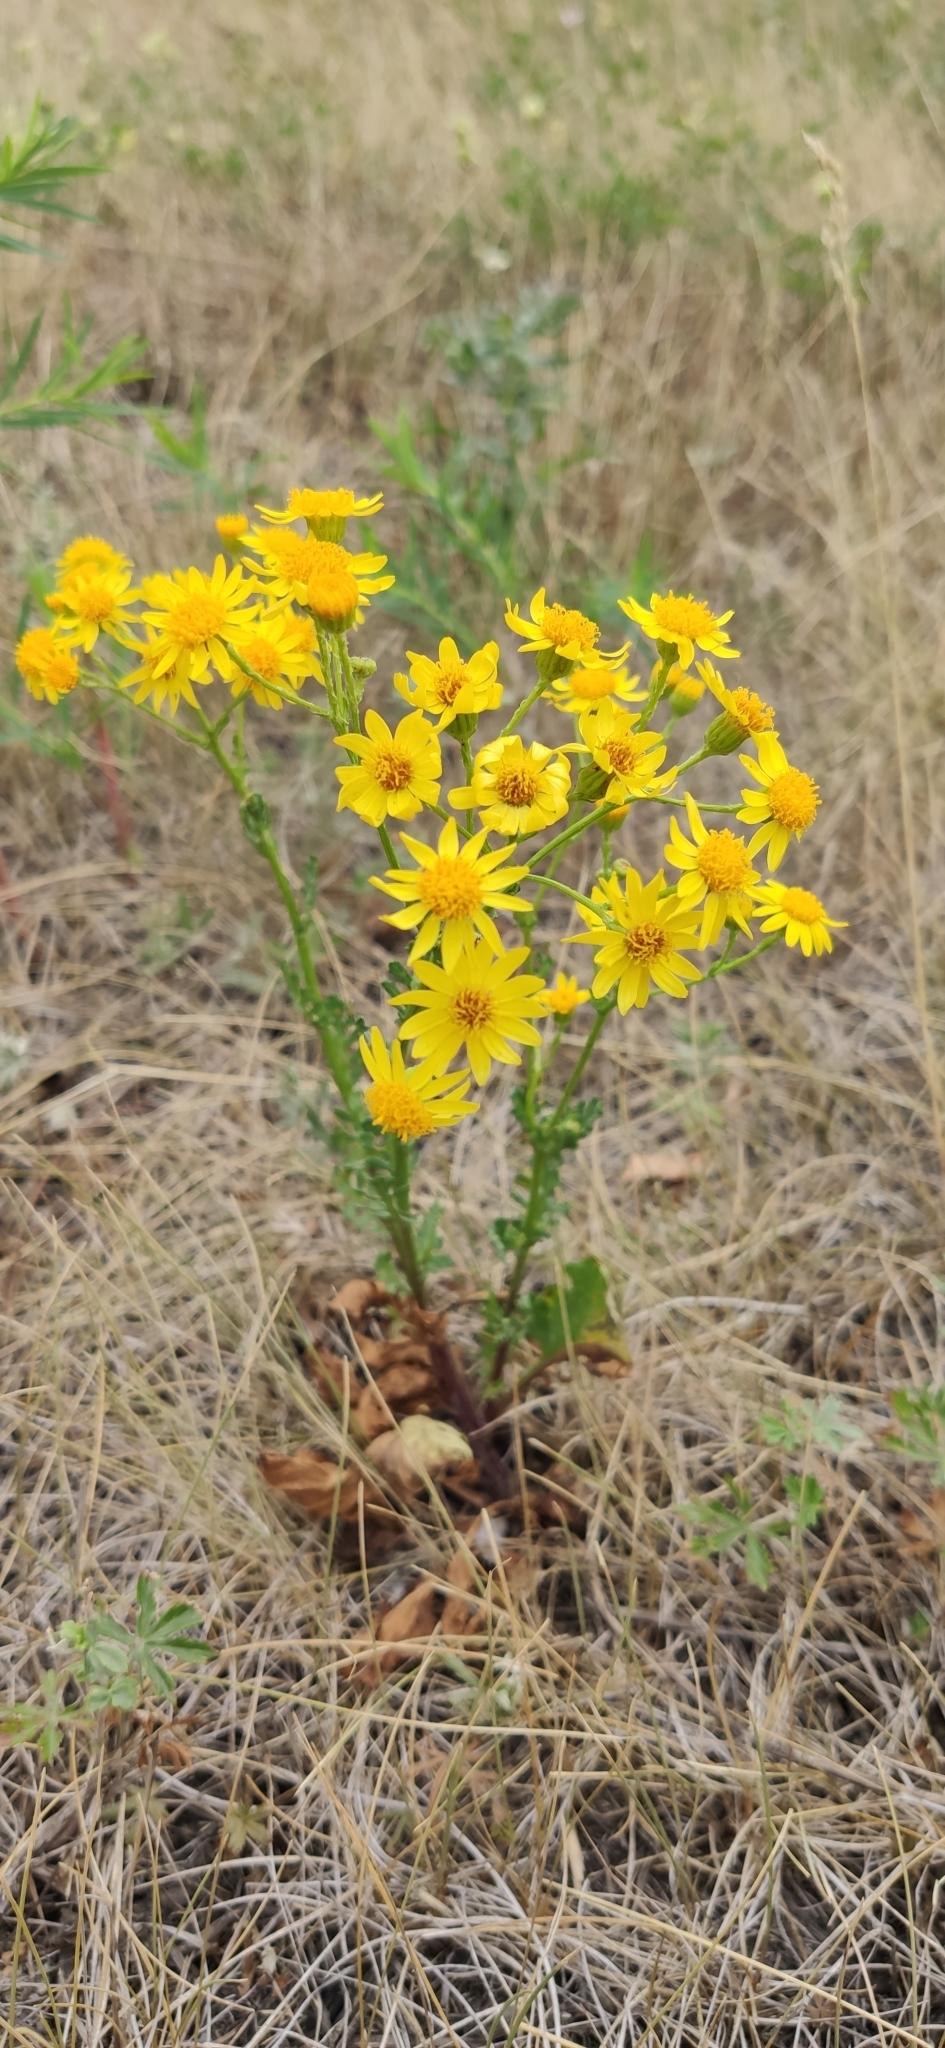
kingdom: Plantae
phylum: Tracheophyta
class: Magnoliopsida
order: Asterales
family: Asteraceae
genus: Jacobaea
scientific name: Jacobaea vulgaris
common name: Stinking willie
